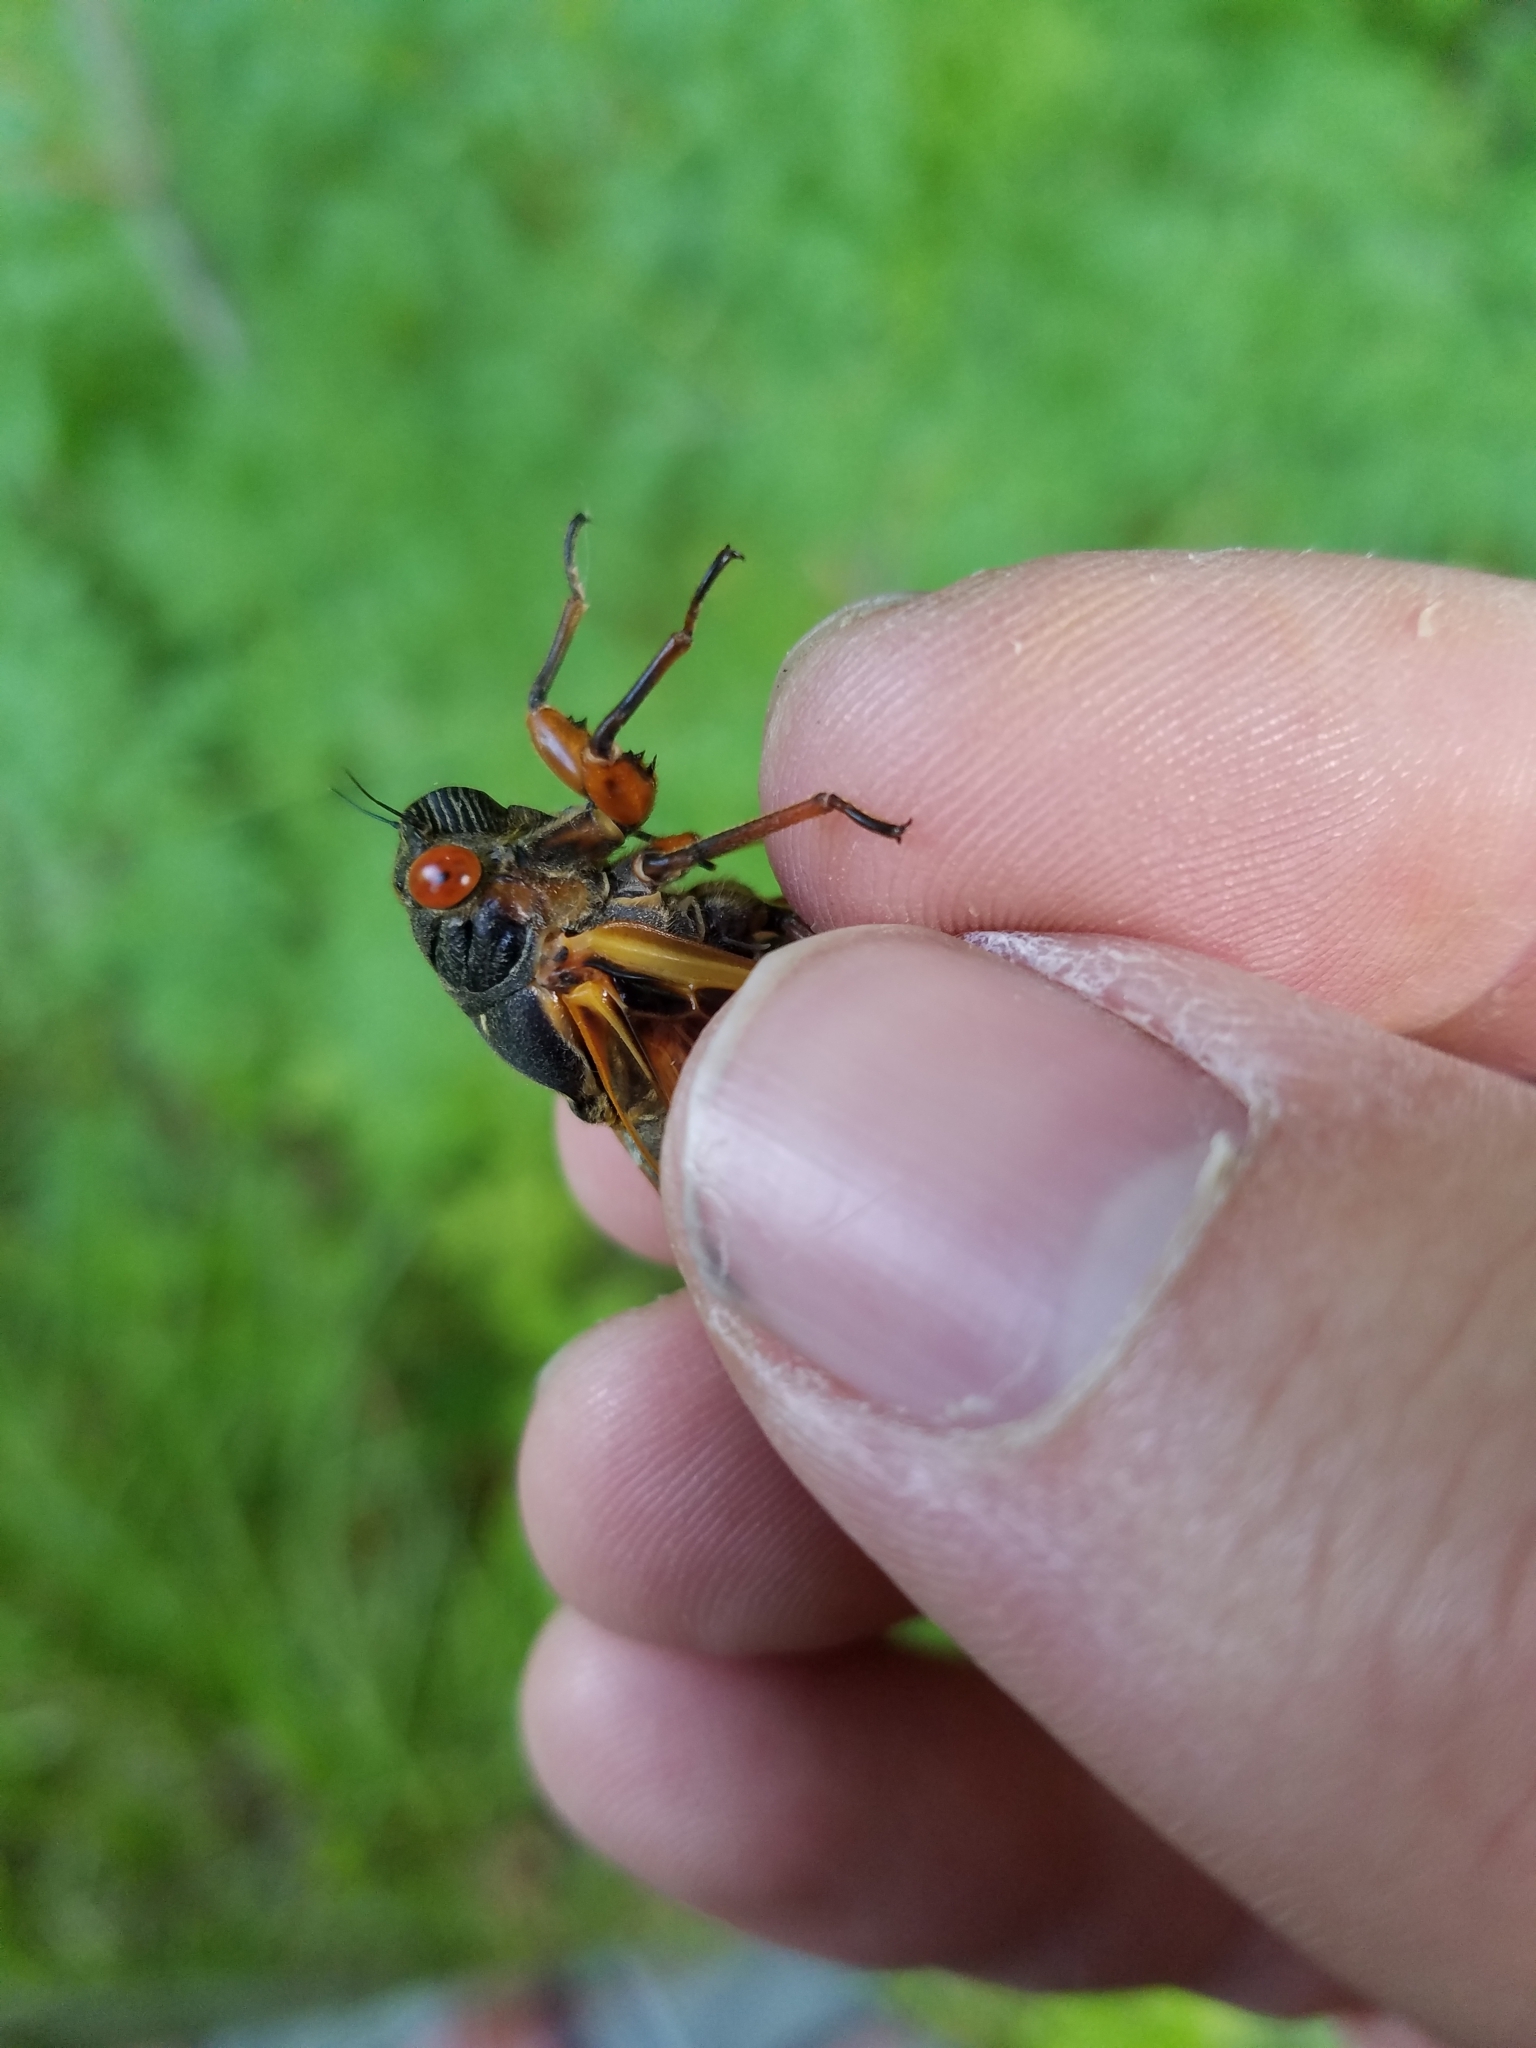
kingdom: Animalia
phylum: Arthropoda
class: Insecta
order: Hemiptera
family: Cicadidae
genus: Magicicada
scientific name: Magicicada septendecim
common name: Periodical cicada
